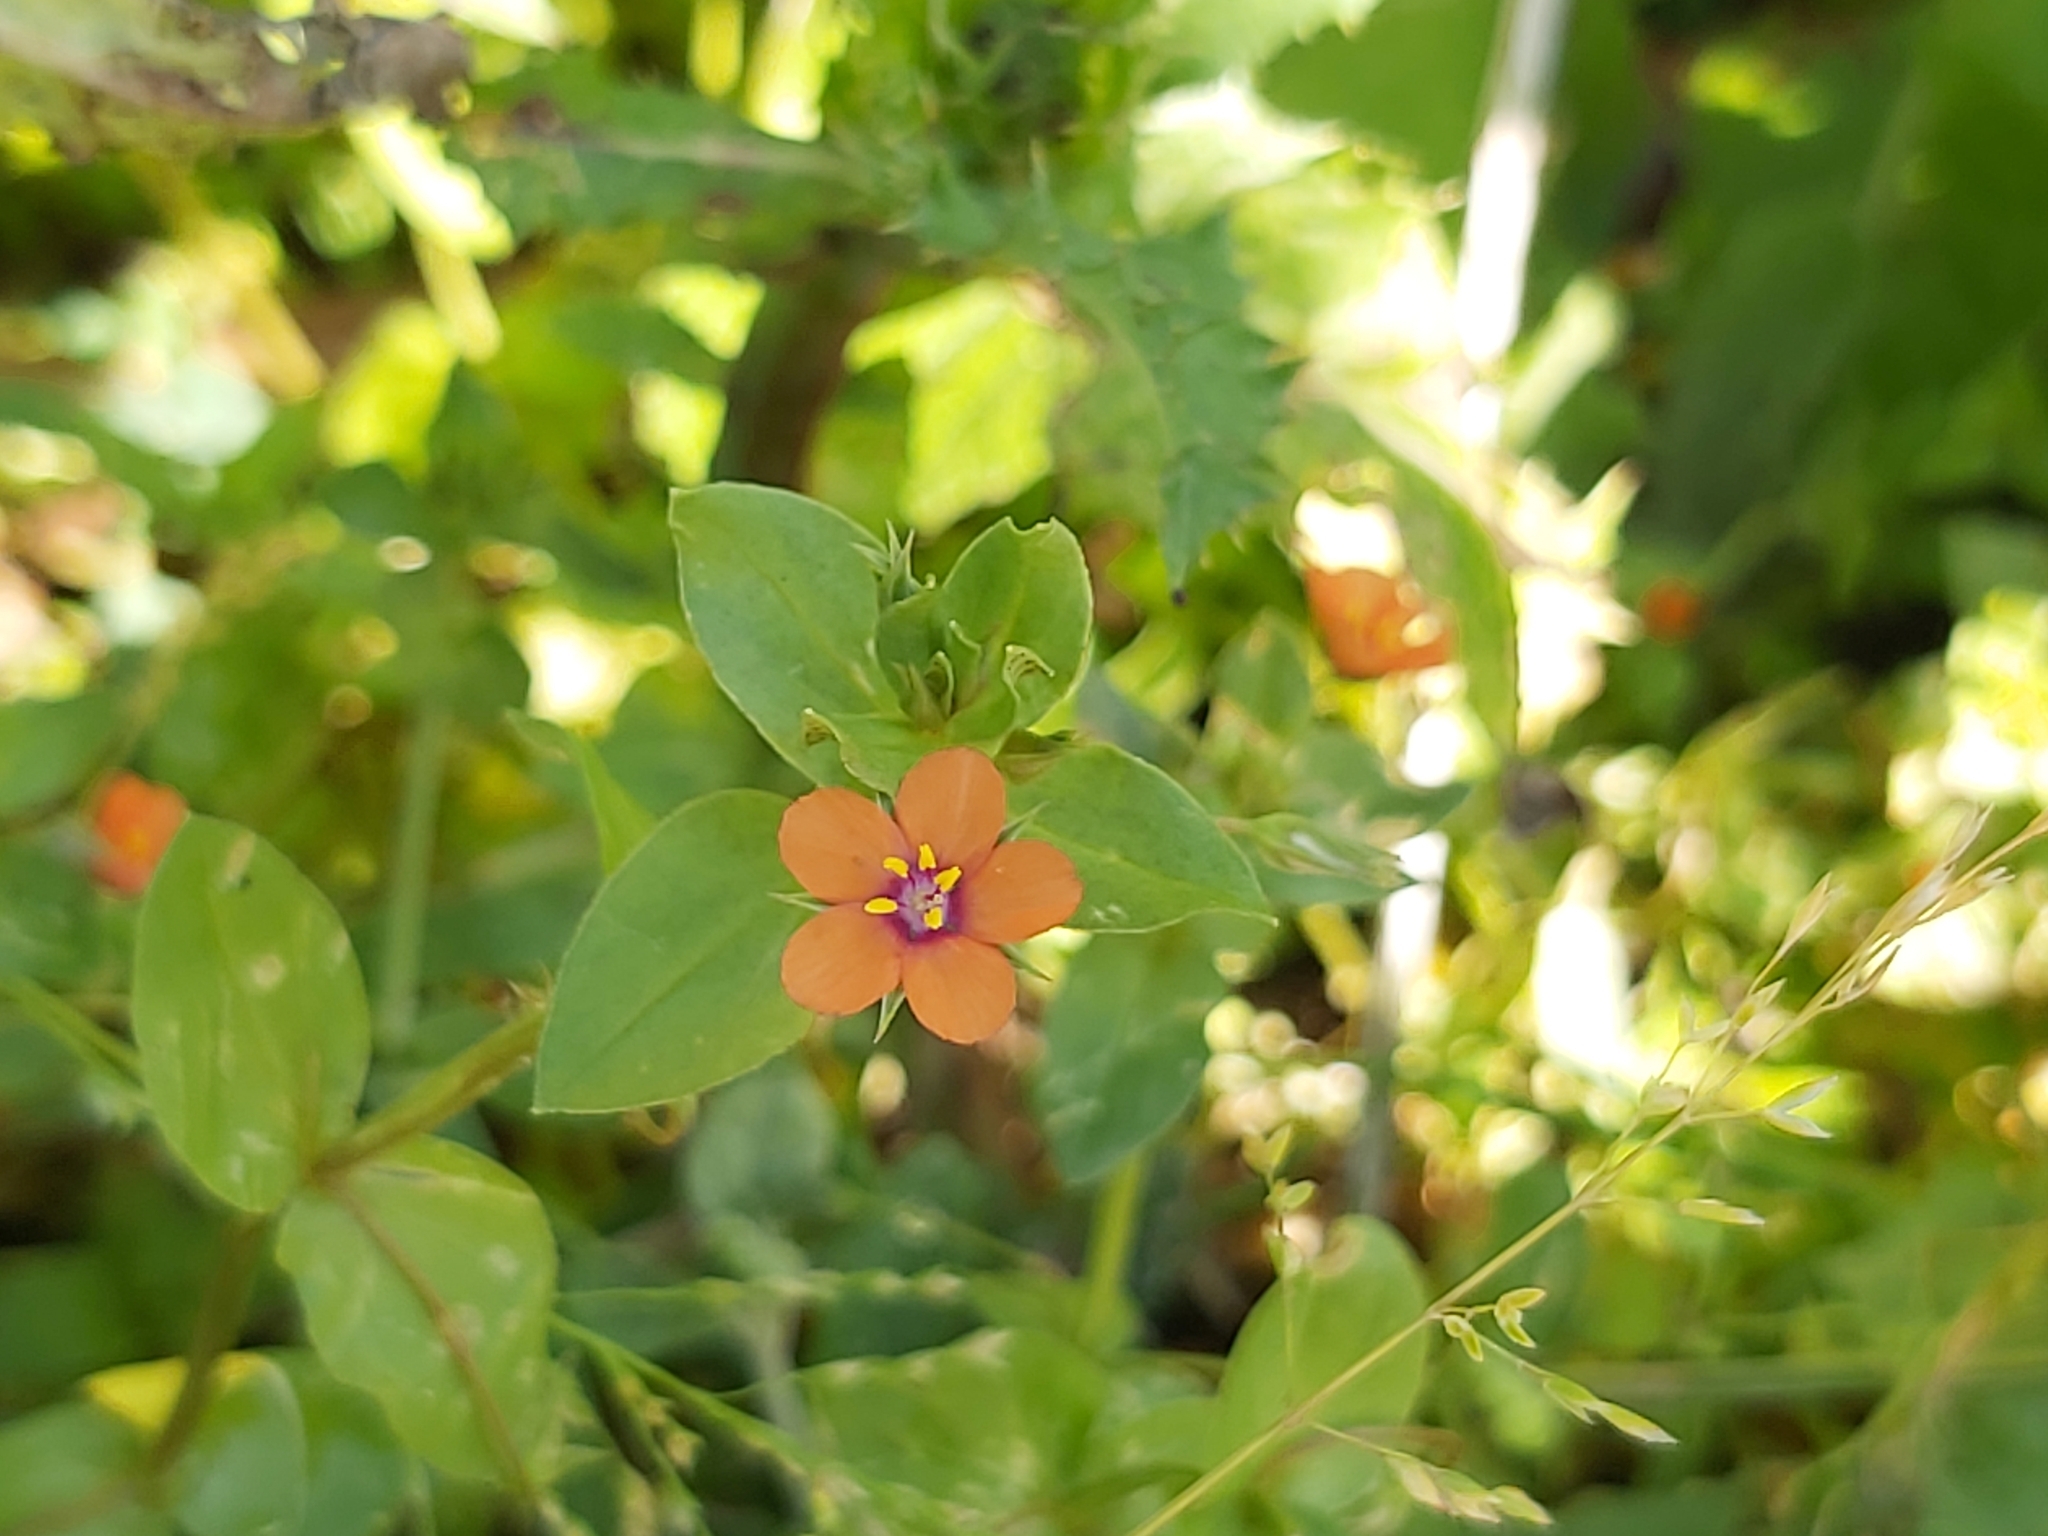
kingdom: Plantae
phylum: Tracheophyta
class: Magnoliopsida
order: Ericales
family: Primulaceae
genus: Lysimachia
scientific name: Lysimachia arvensis
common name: Scarlet pimpernel
